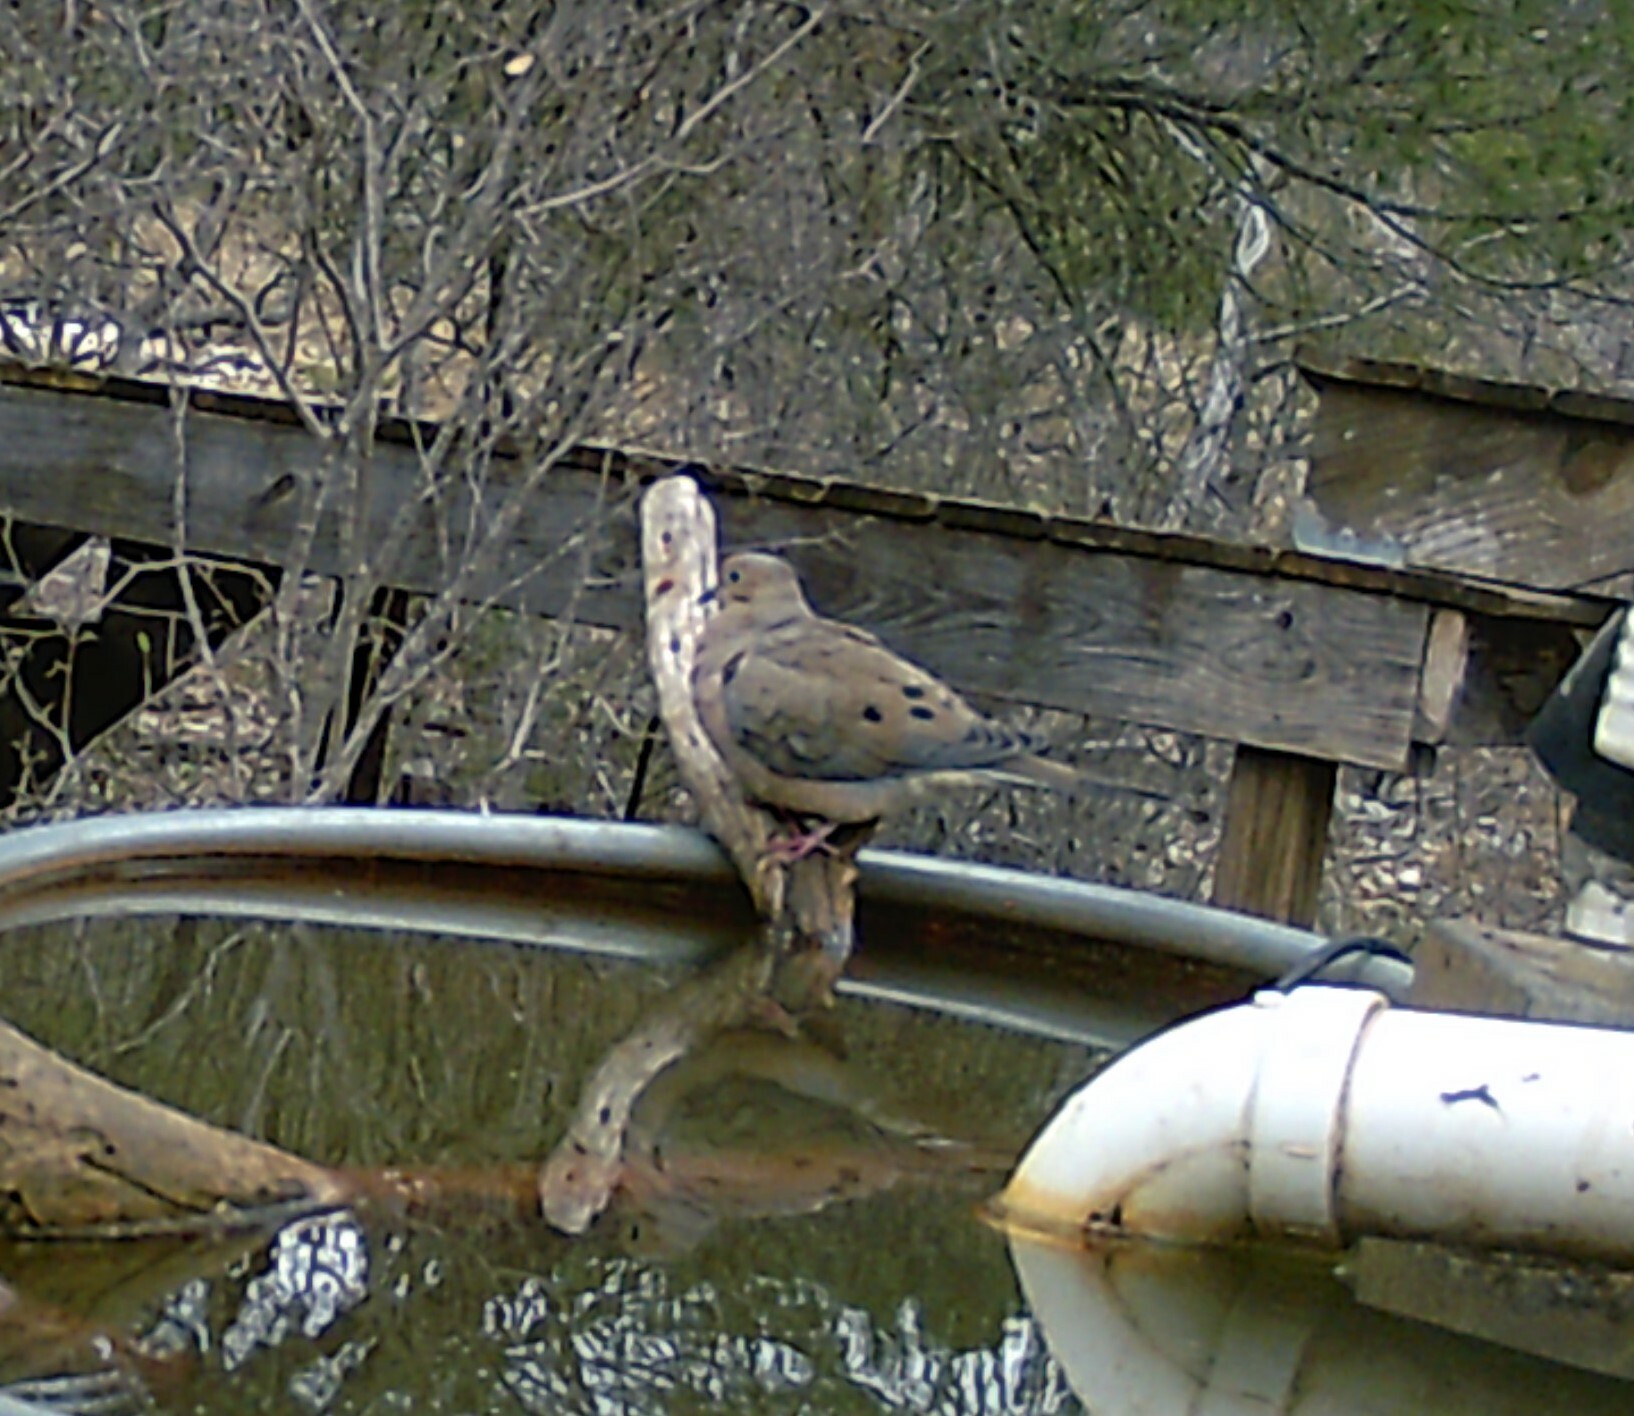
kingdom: Animalia
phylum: Chordata
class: Aves
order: Columbiformes
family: Columbidae
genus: Zenaida
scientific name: Zenaida macroura
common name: Mourning dove
